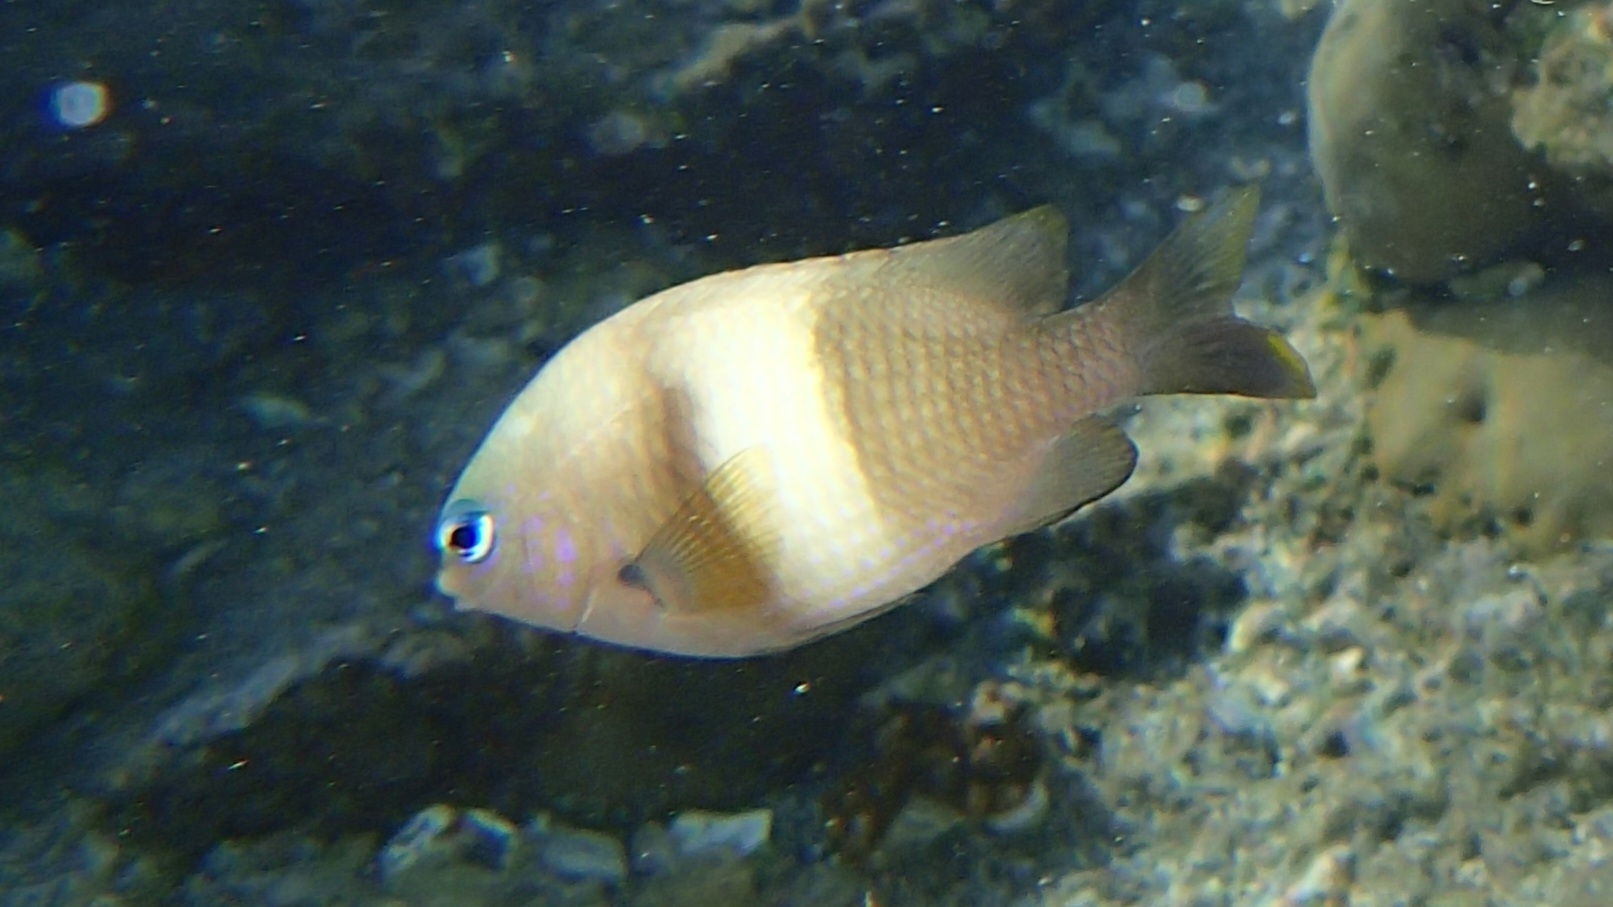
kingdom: Animalia
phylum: Chordata
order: Perciformes
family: Pomacentridae
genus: Plectroglyphidodon
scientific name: Plectroglyphidodon leucozonus
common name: White-band damsel
